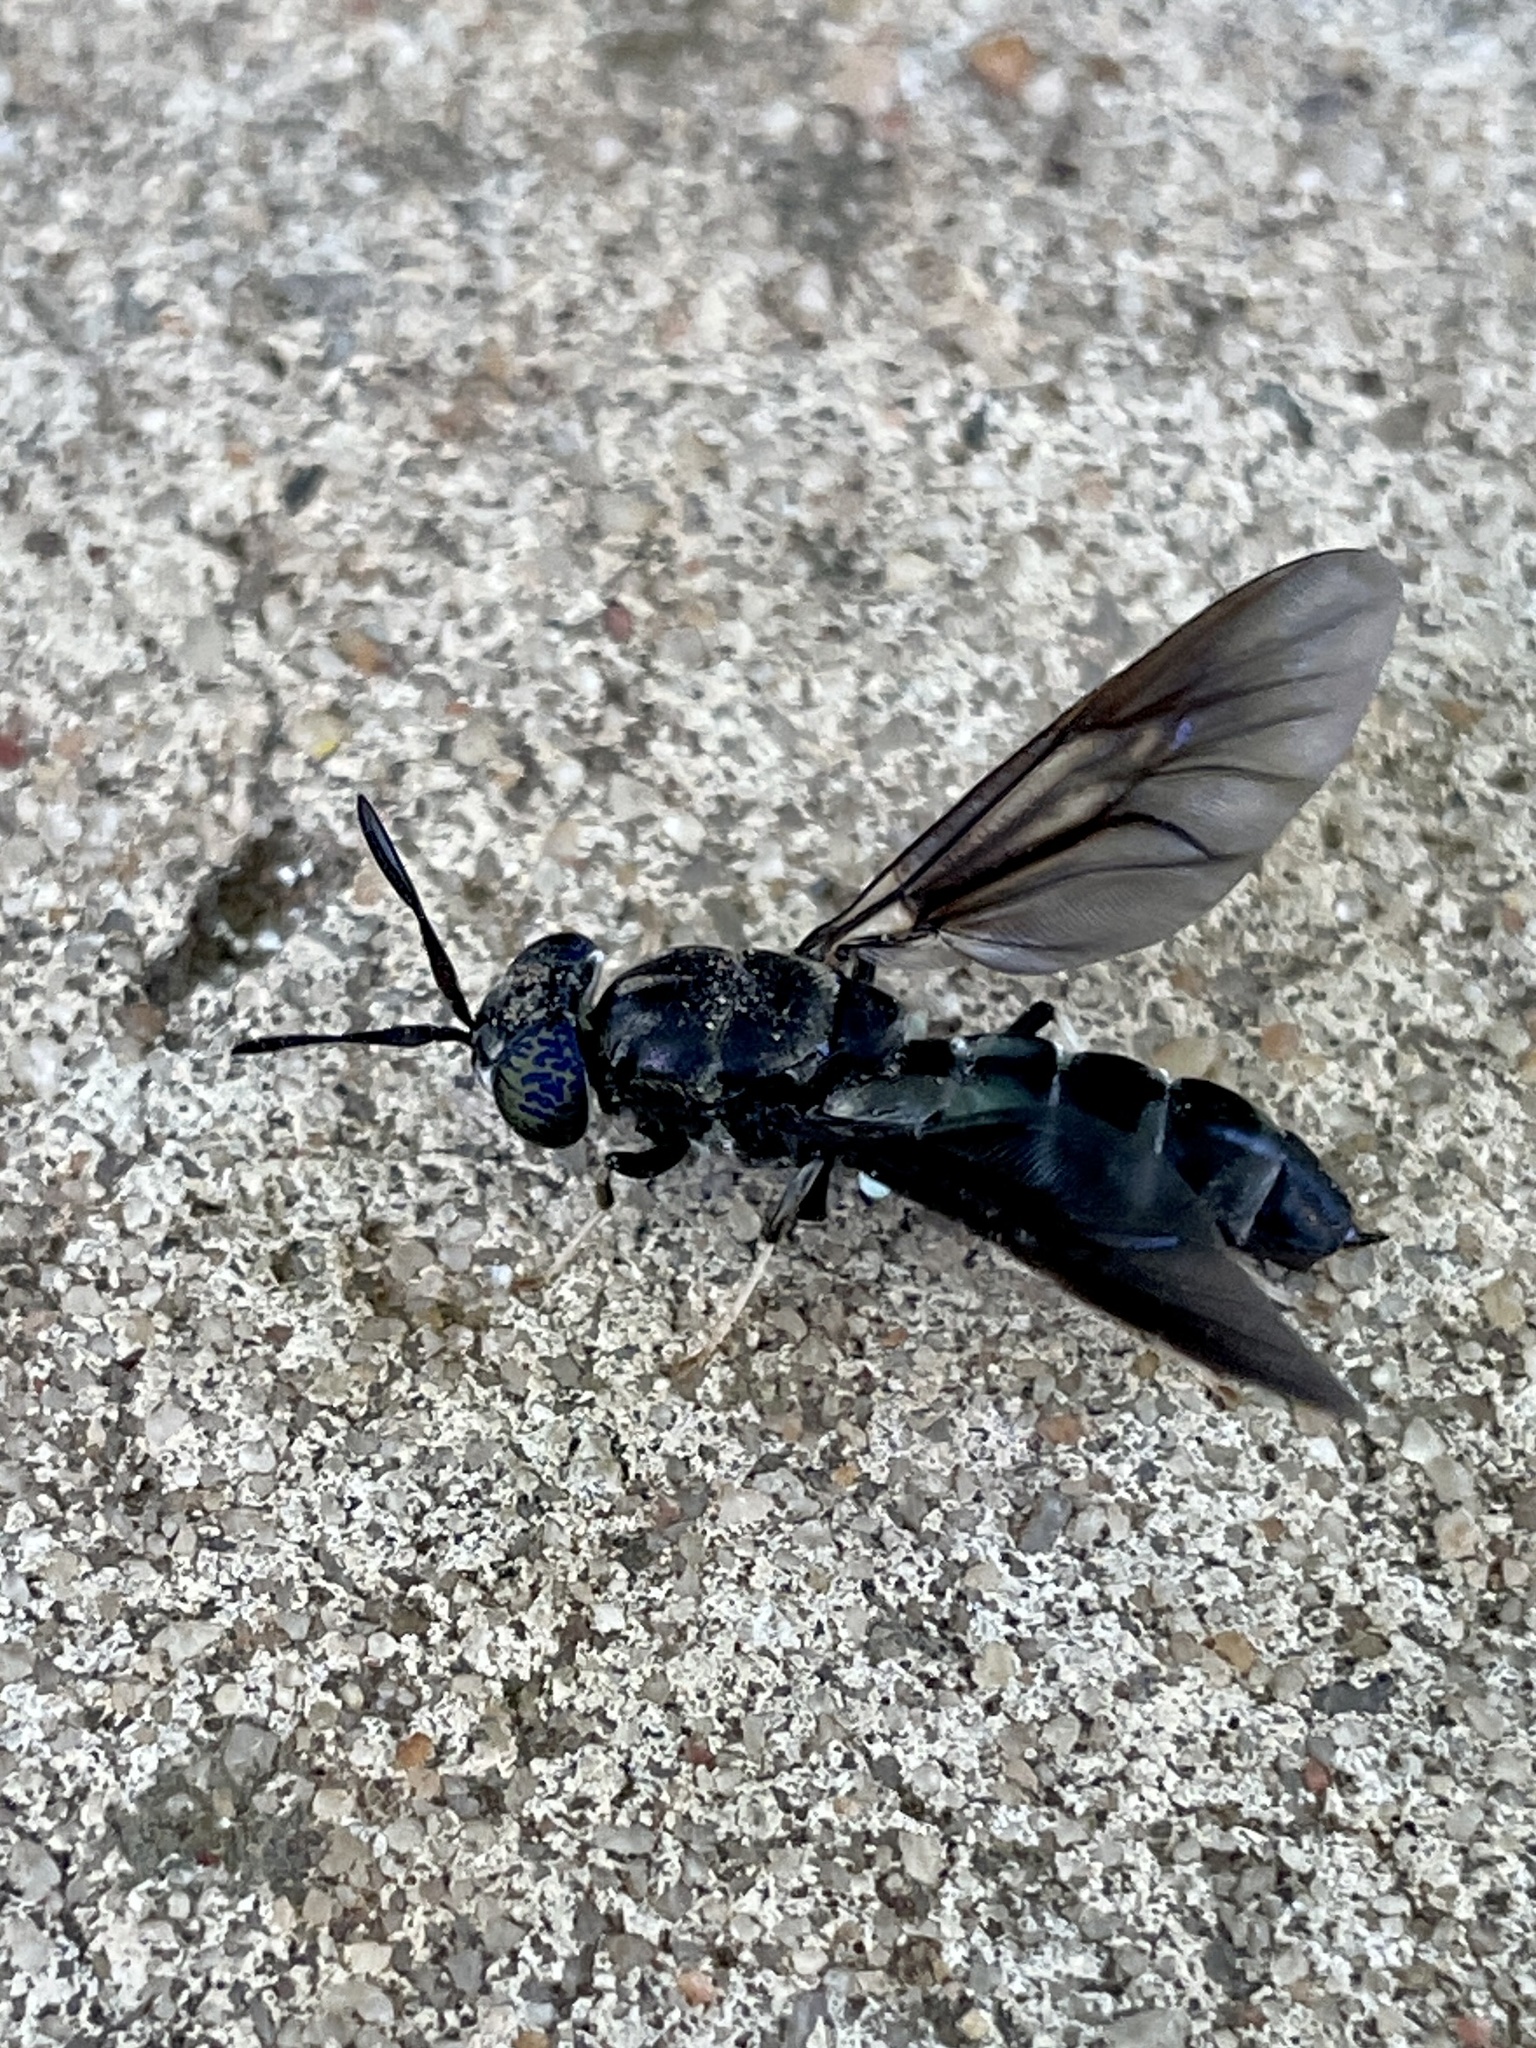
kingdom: Animalia
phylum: Arthropoda
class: Insecta
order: Diptera
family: Stratiomyidae
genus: Hermetia
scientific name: Hermetia illucens
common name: Black soldier fly
